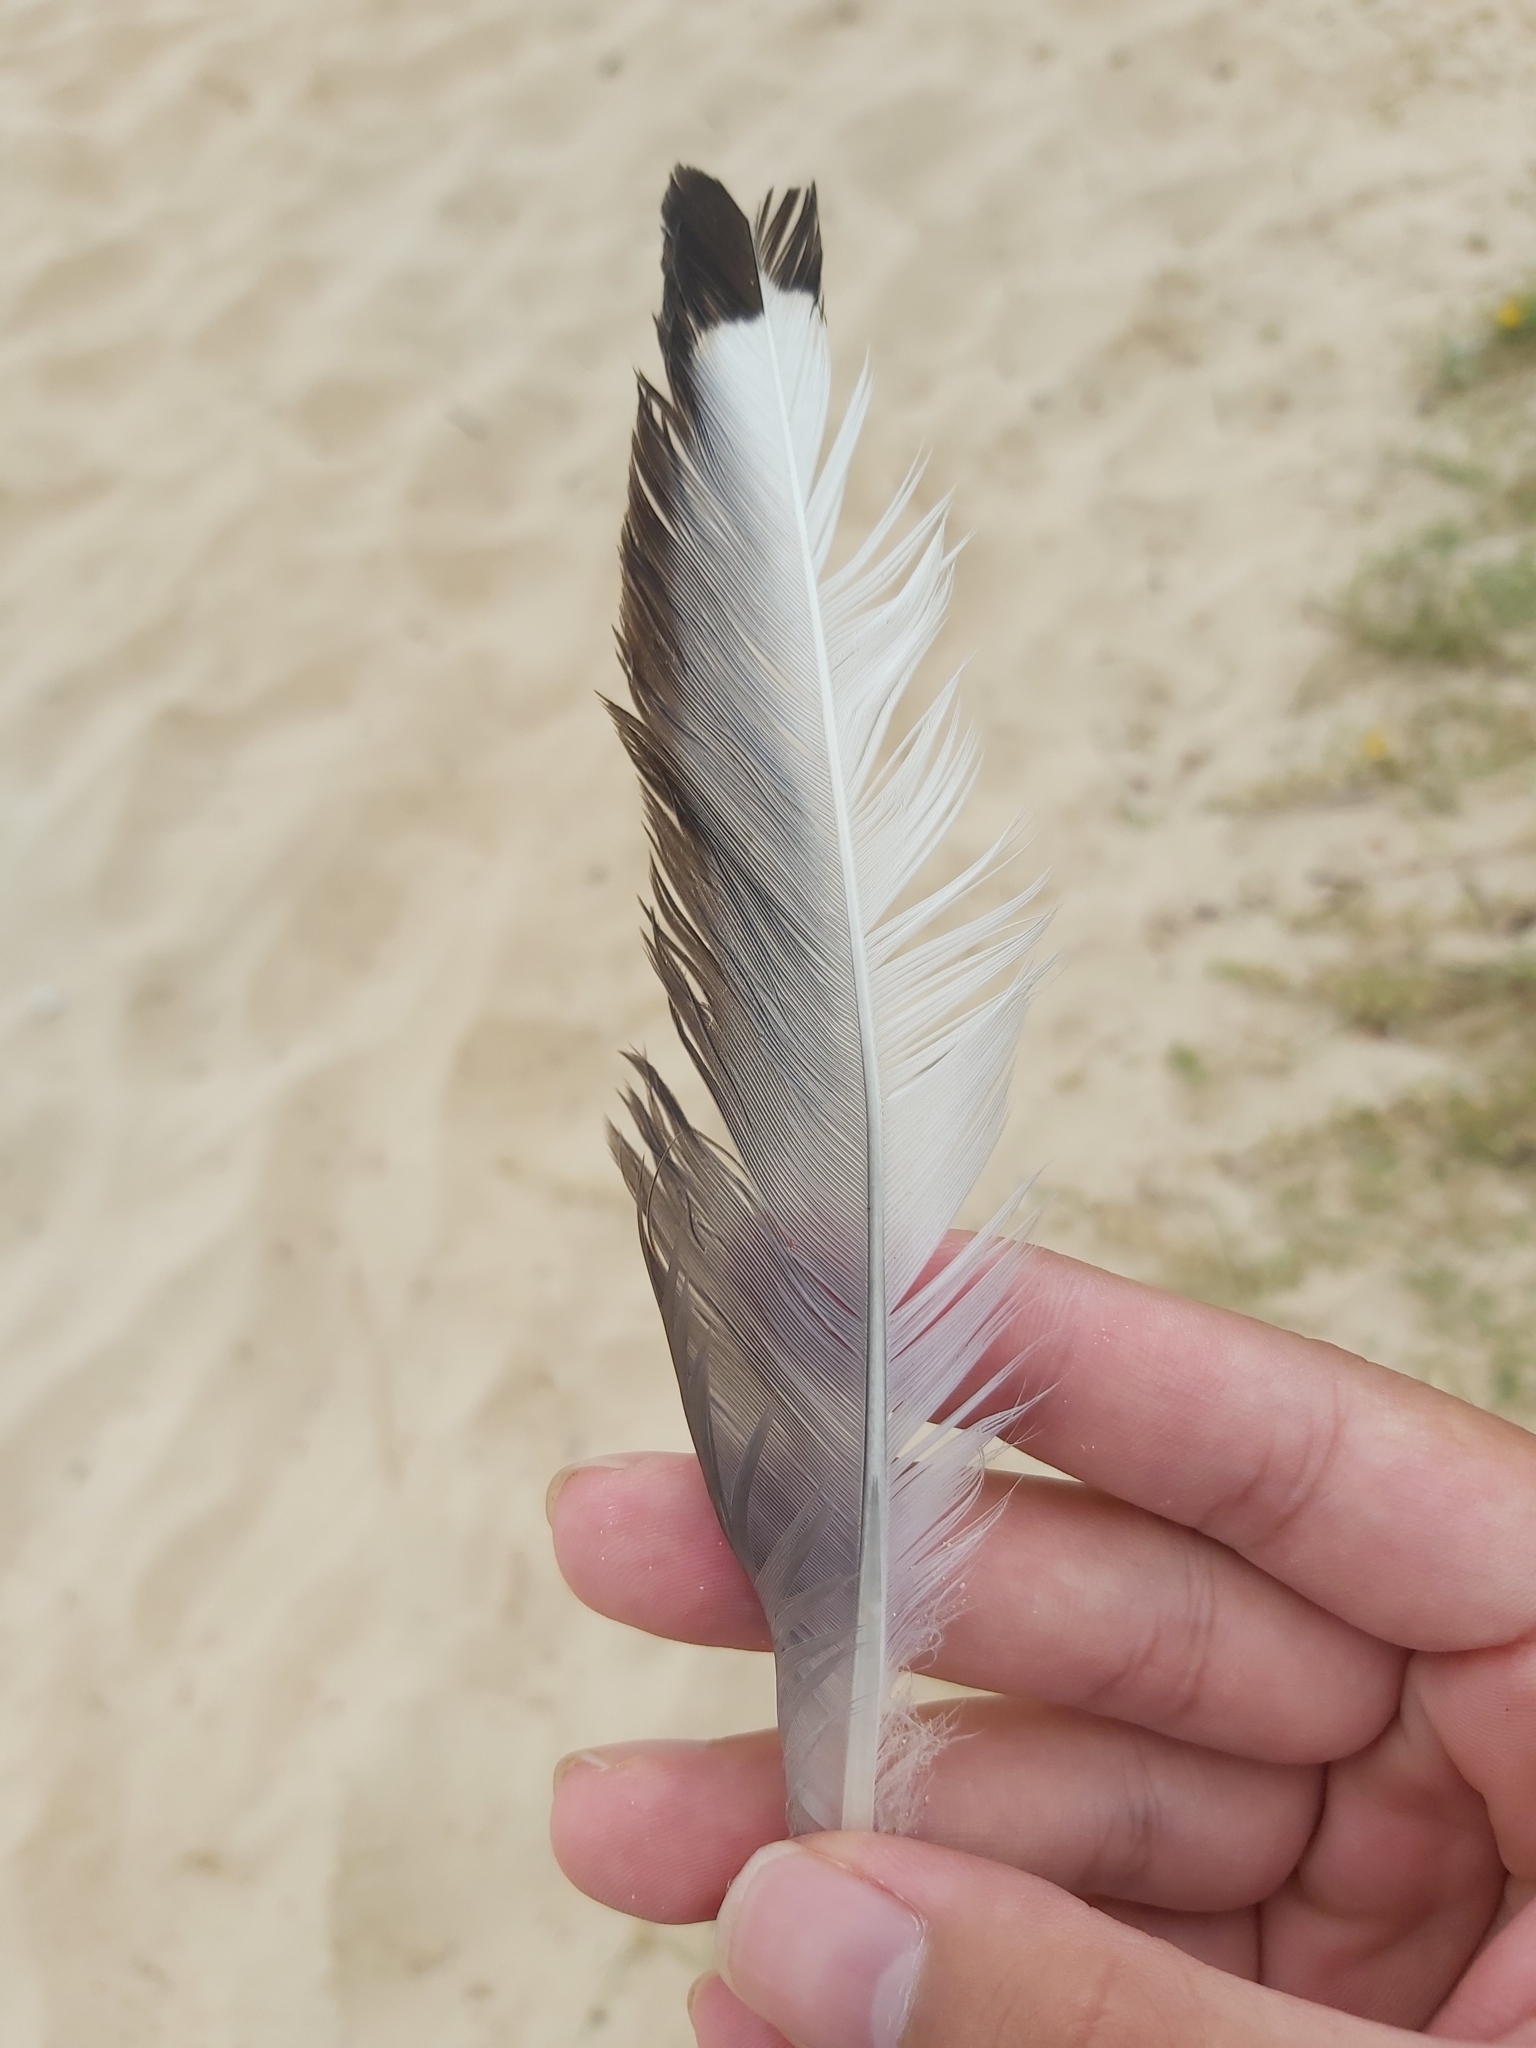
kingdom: Animalia
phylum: Chordata
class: Aves
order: Charadriiformes
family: Laridae
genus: Chroicocephalus
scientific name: Chroicocephalus novaehollandiae
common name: Silver gull
